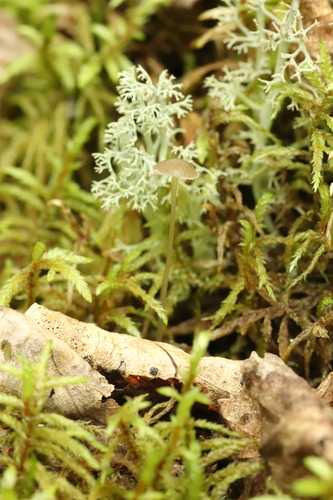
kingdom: Fungi
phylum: Basidiomycota
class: Agaricomycetes
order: Agaricales
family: Mycenaceae
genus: Mycena
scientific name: Mycena epipterygia
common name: Yellowleg bonnet
